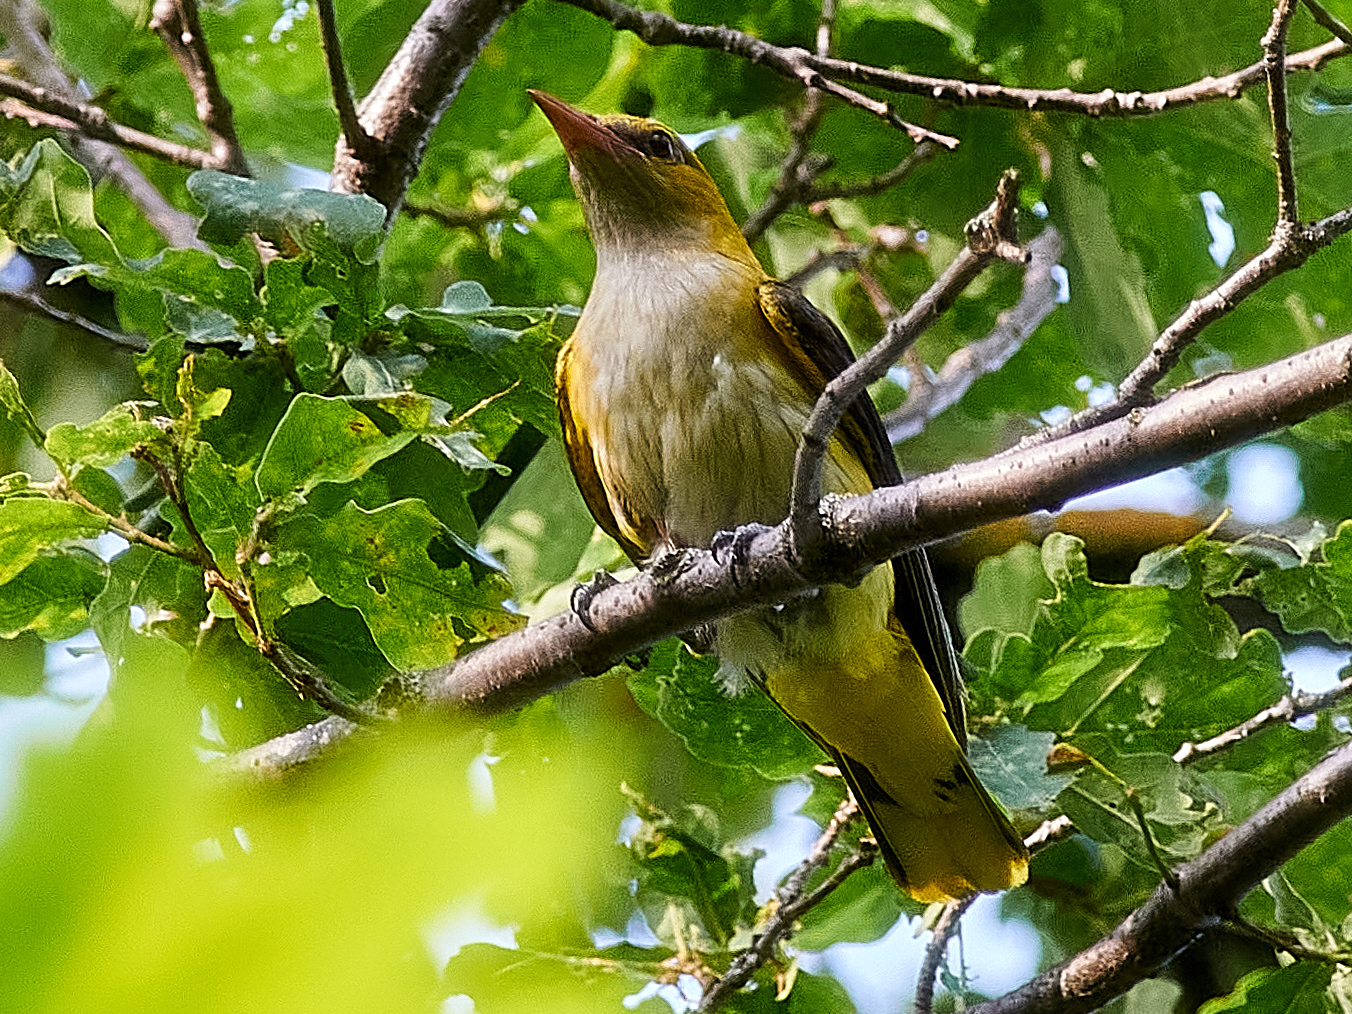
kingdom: Animalia
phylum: Chordata
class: Aves
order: Passeriformes
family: Oriolidae
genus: Oriolus
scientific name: Oriolus oriolus
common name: Eurasian golden oriole
